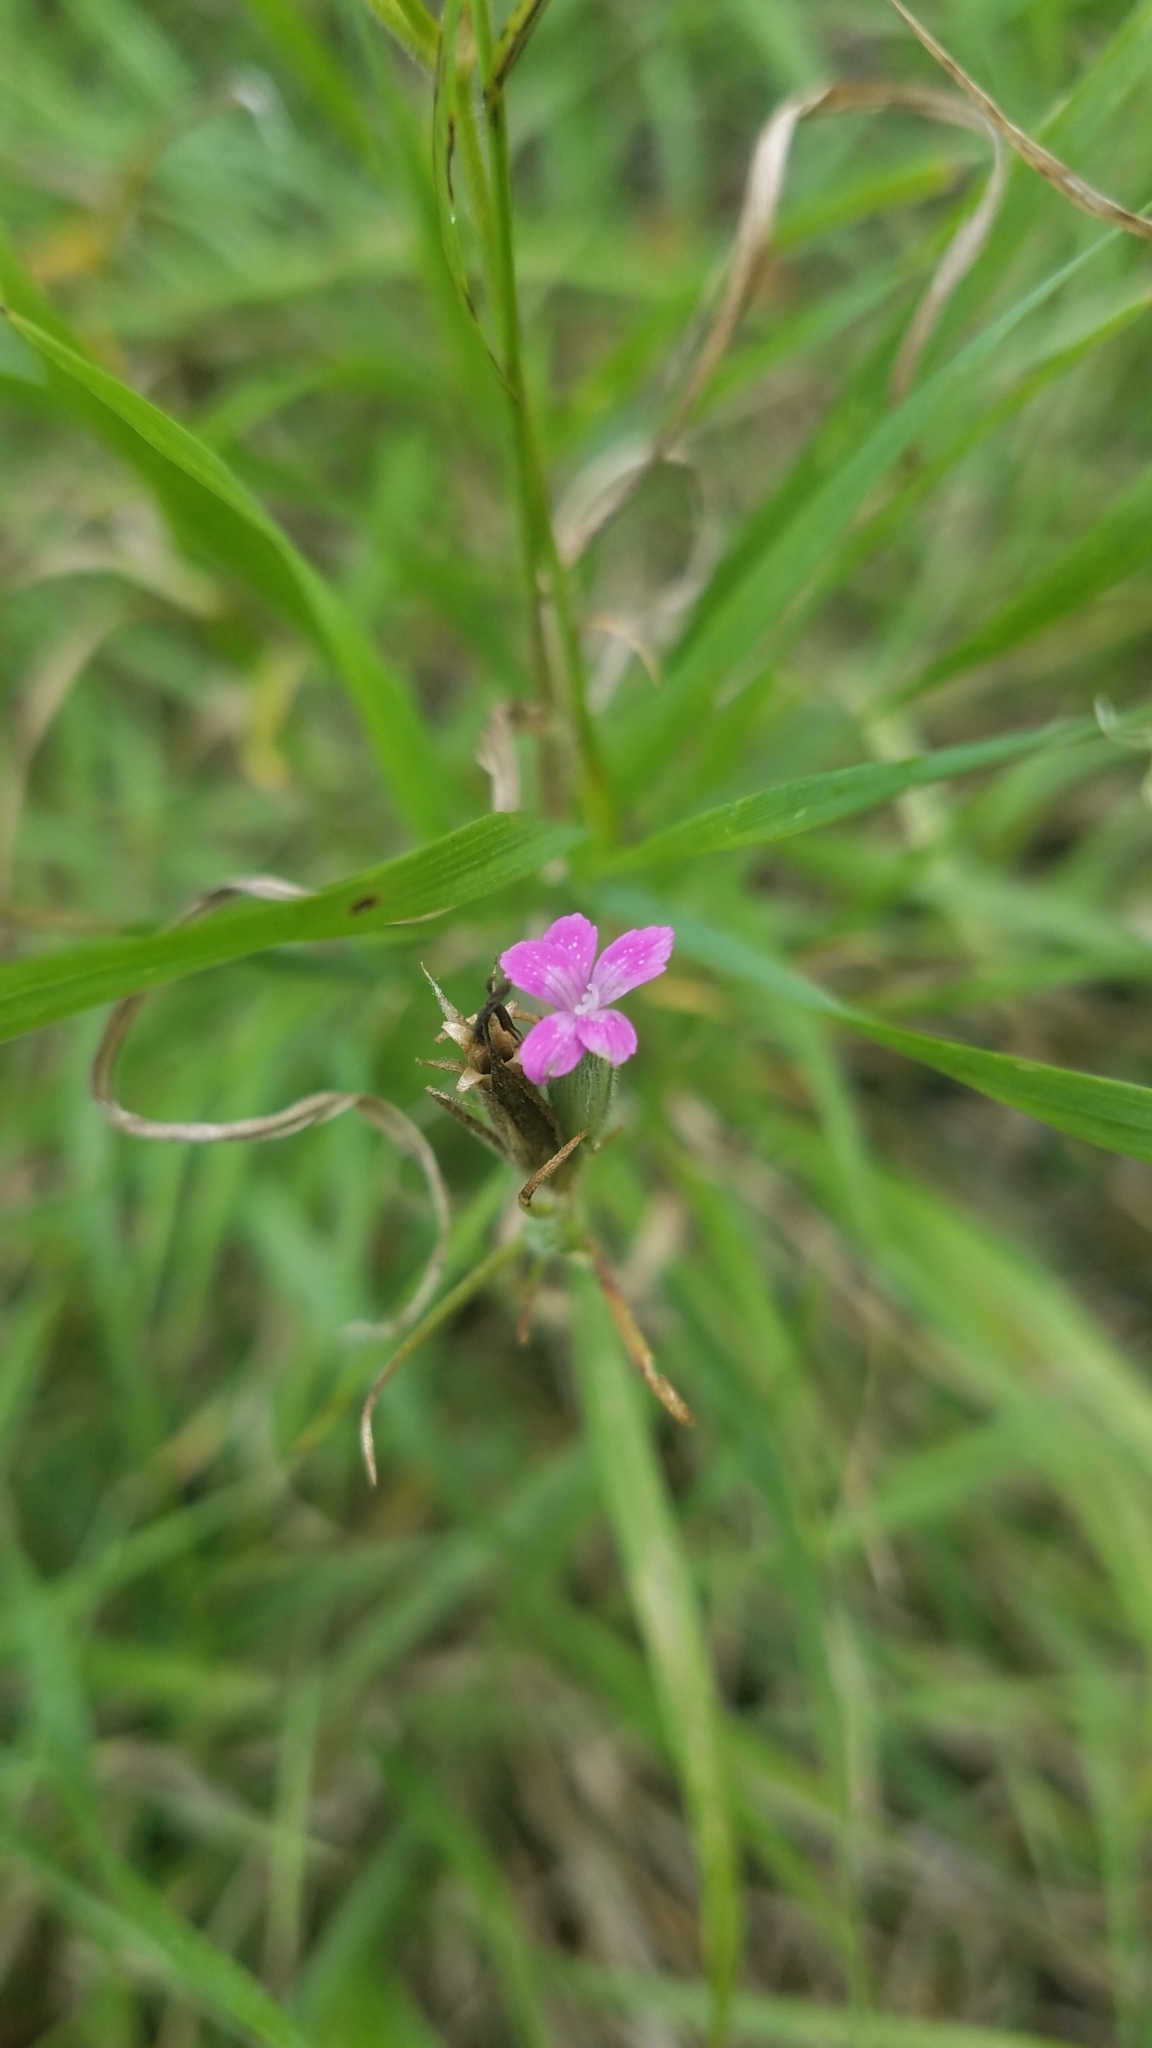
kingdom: Plantae
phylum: Tracheophyta
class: Magnoliopsida
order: Caryophyllales
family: Caryophyllaceae
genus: Dianthus
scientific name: Dianthus armeria
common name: Deptford pink
